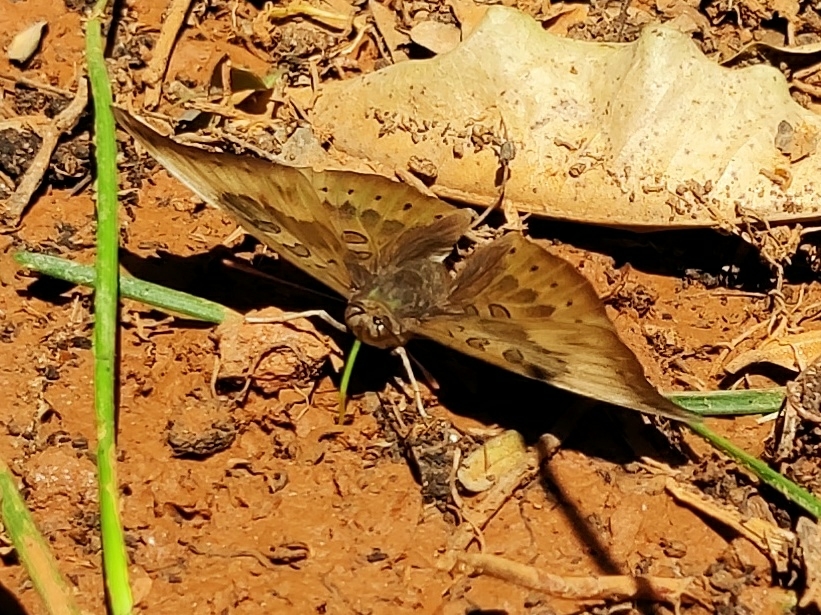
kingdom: Animalia
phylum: Arthropoda
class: Insecta
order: Lepidoptera
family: Nymphalidae
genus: Euthalia
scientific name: Euthalia aconthea
